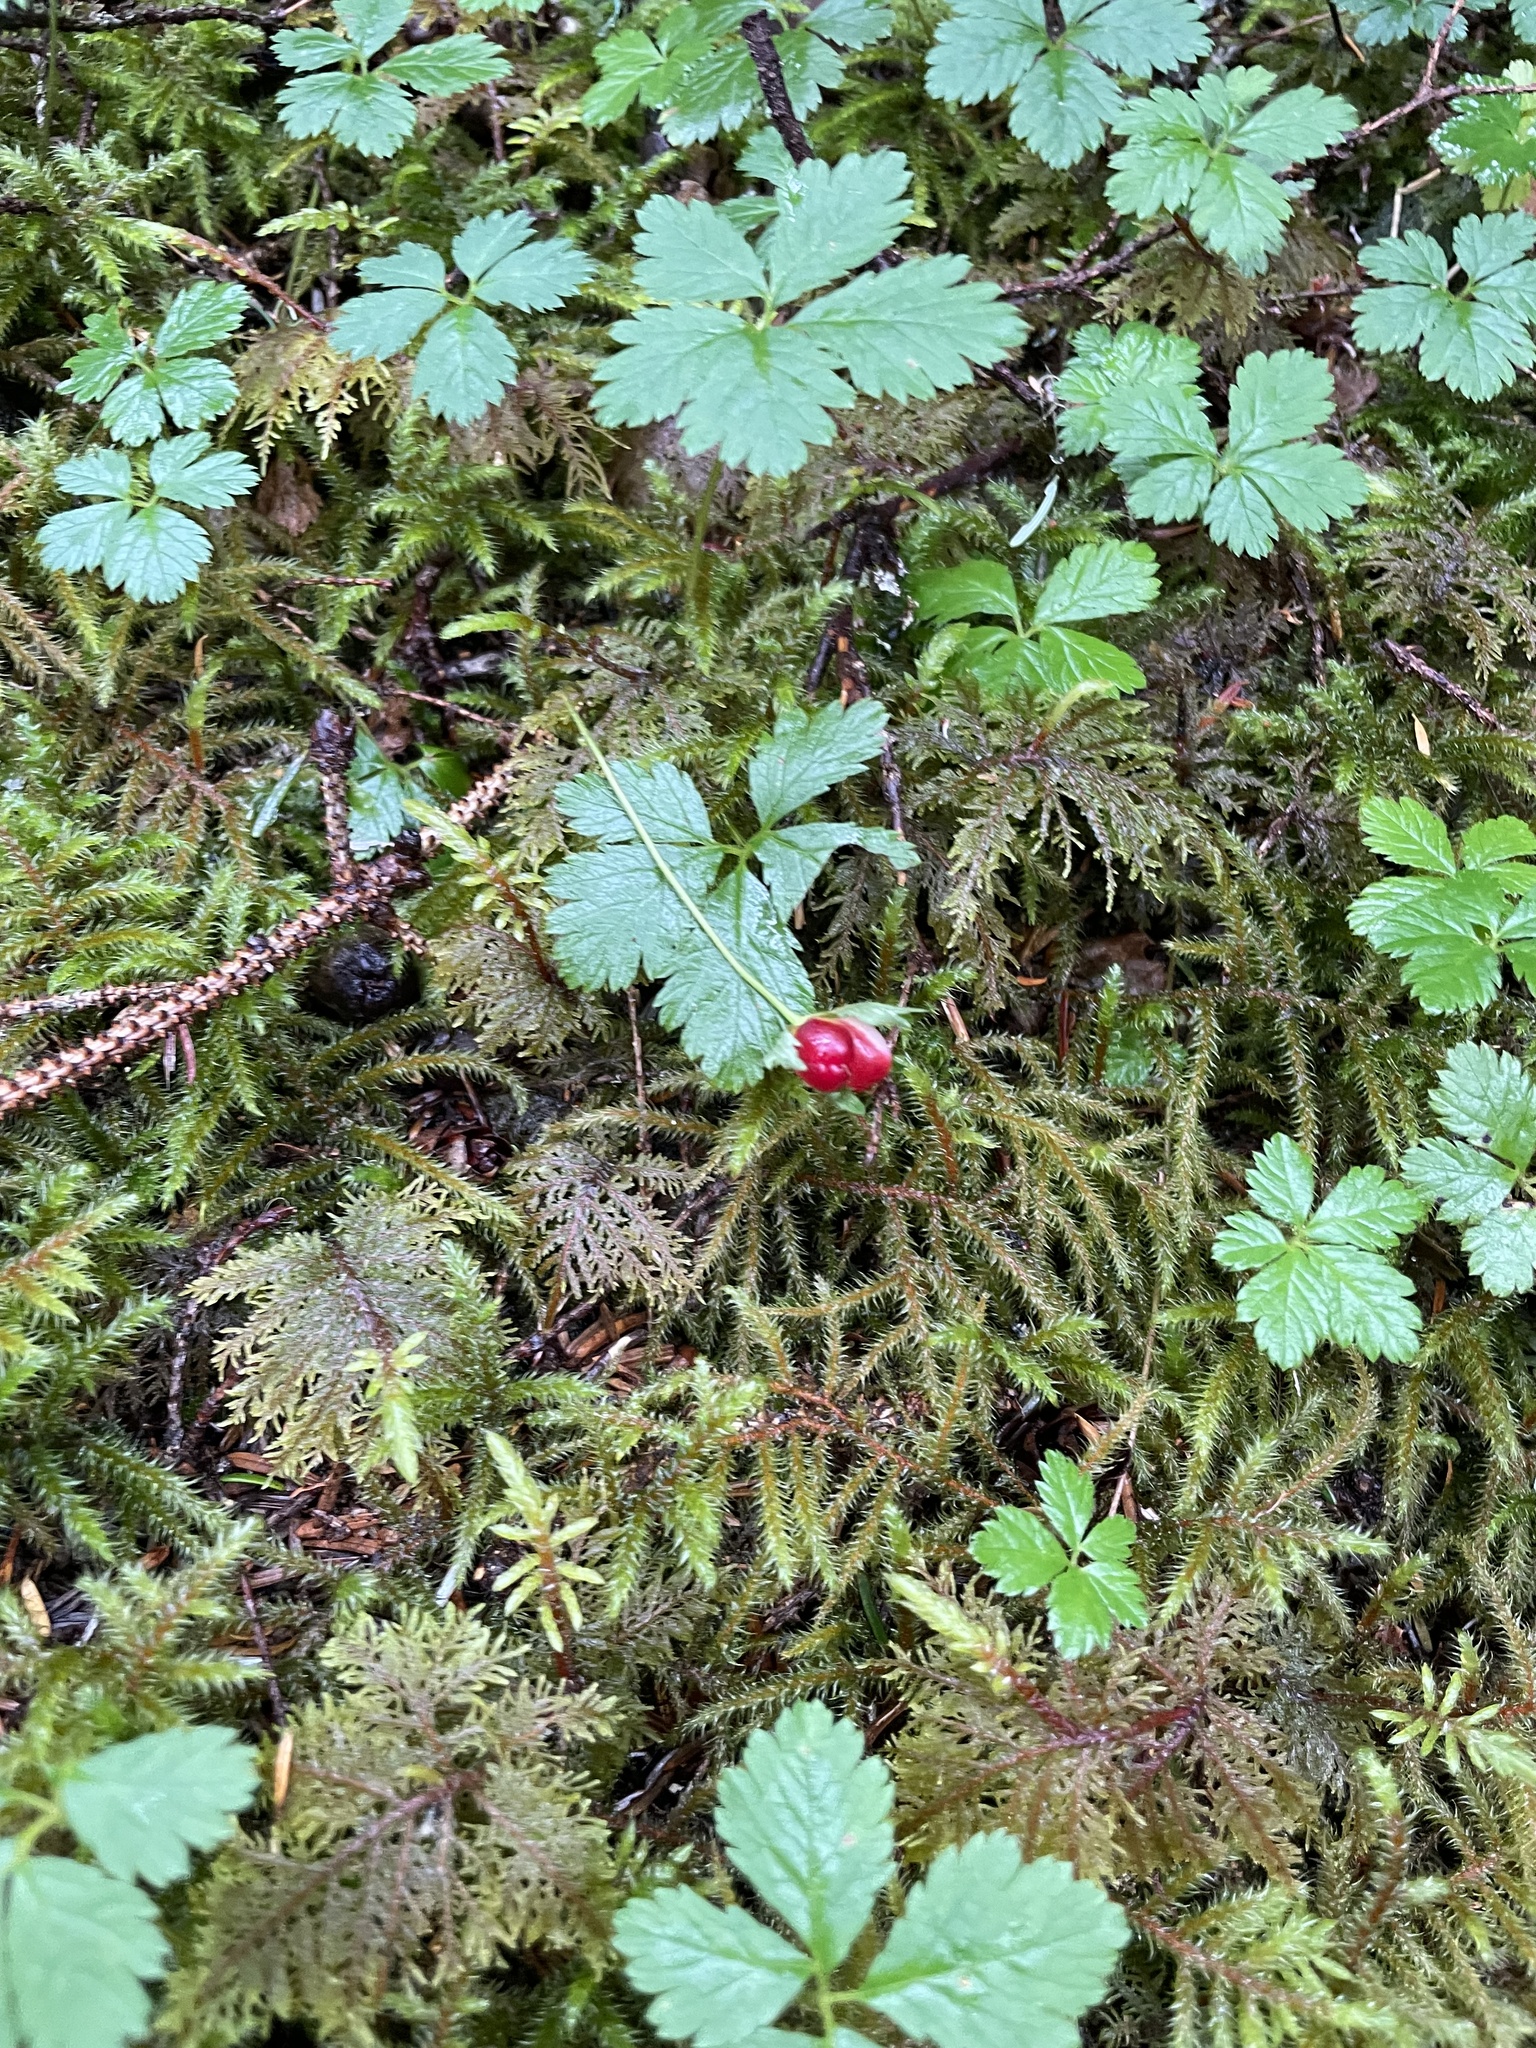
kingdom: Plantae
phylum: Tracheophyta
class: Magnoliopsida
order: Rosales
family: Rosaceae
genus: Rubus
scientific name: Rubus pedatus
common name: Creeping raspberry
